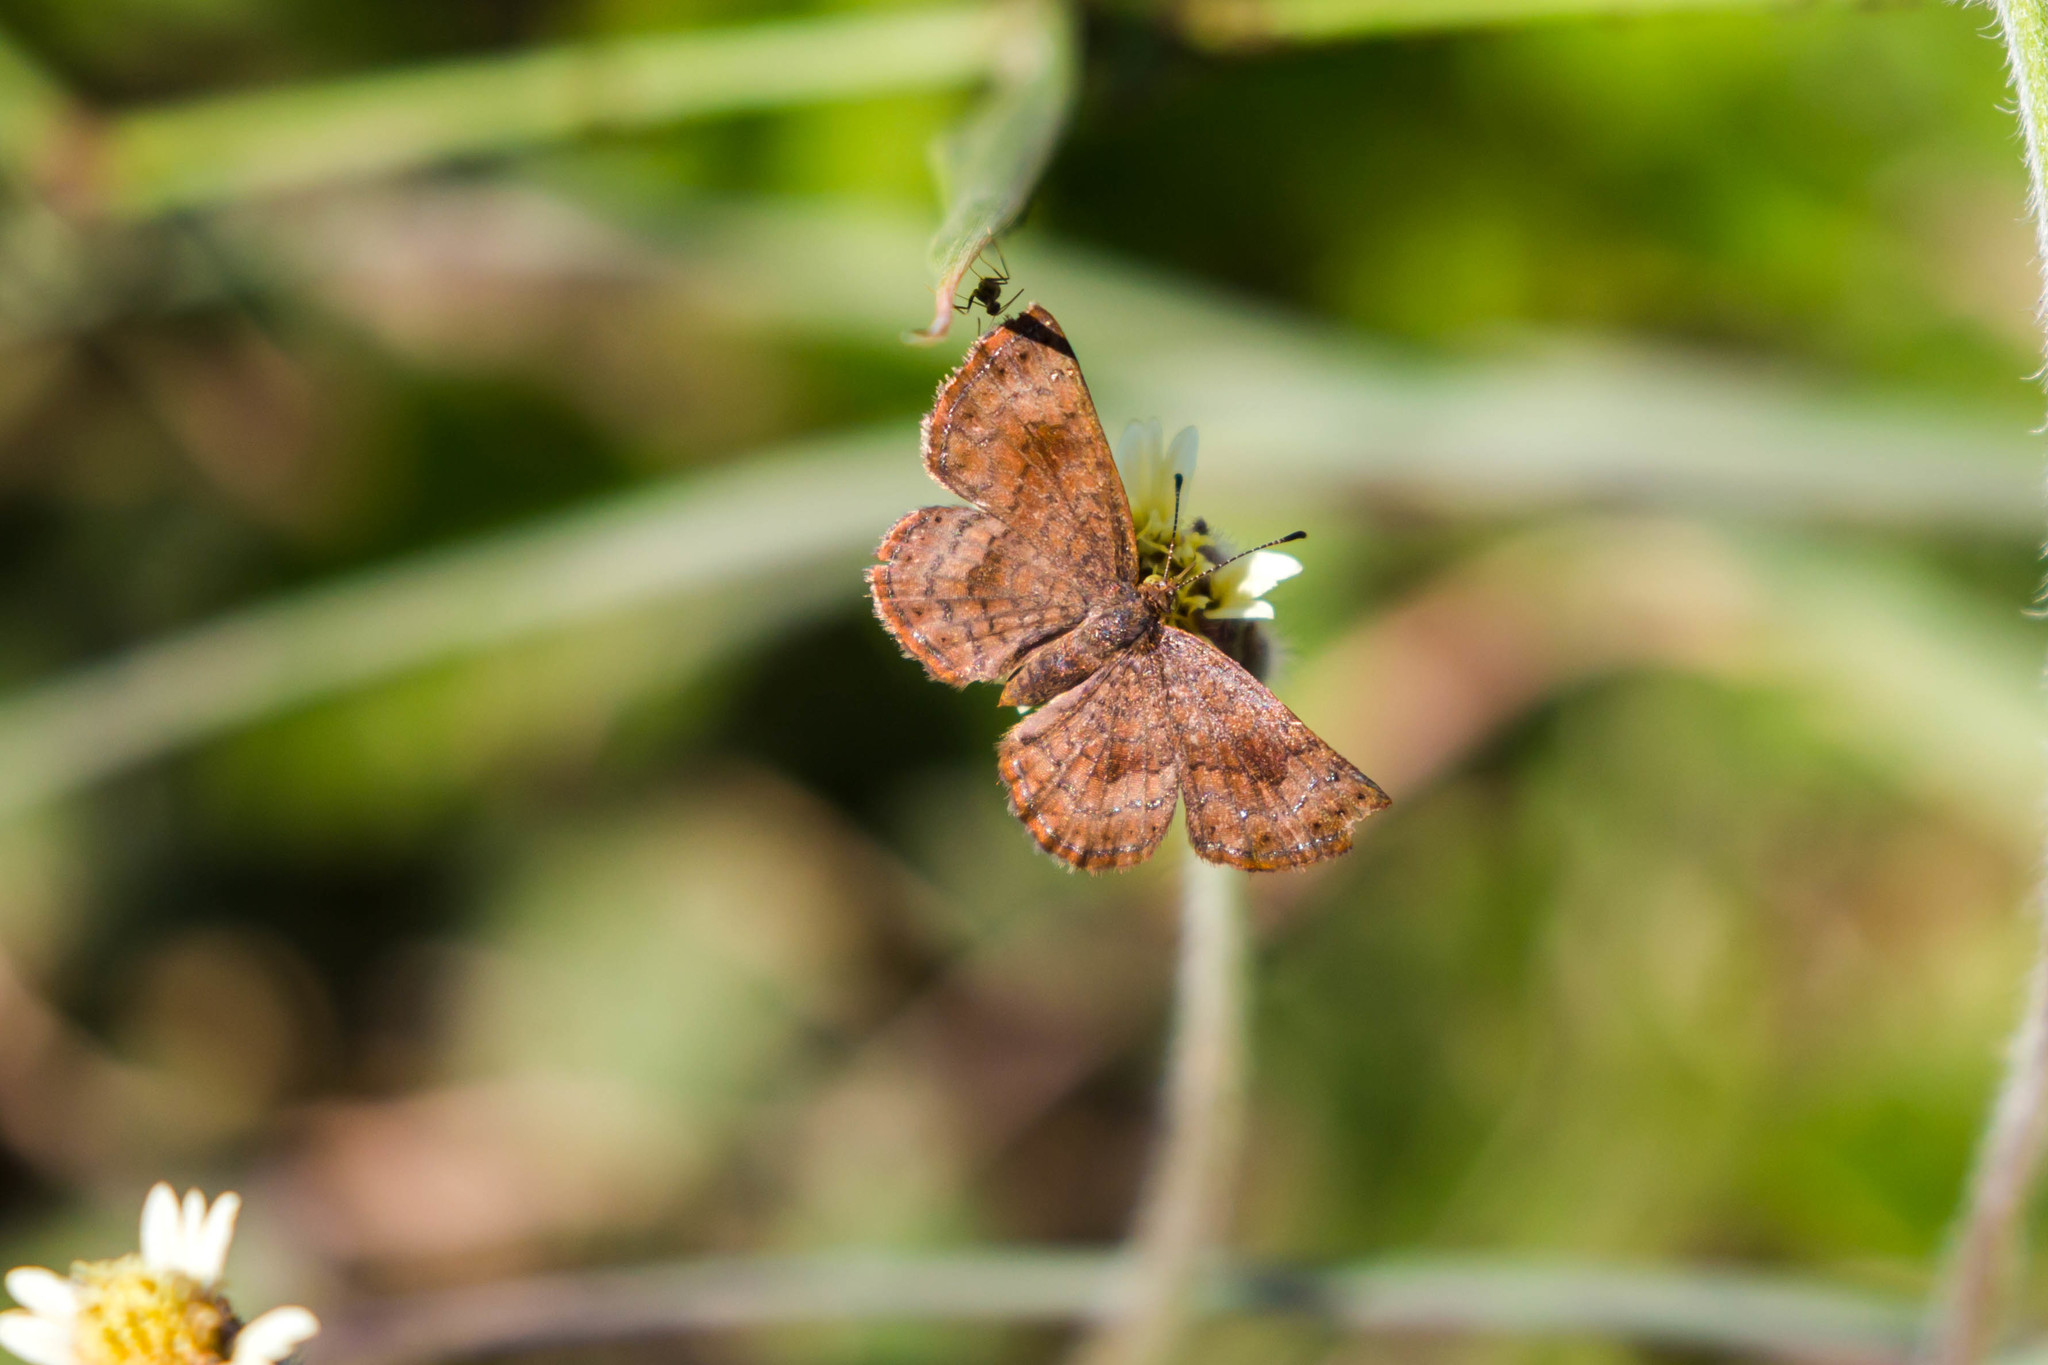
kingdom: Animalia
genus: Calephelis
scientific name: Calephelis nemesis
